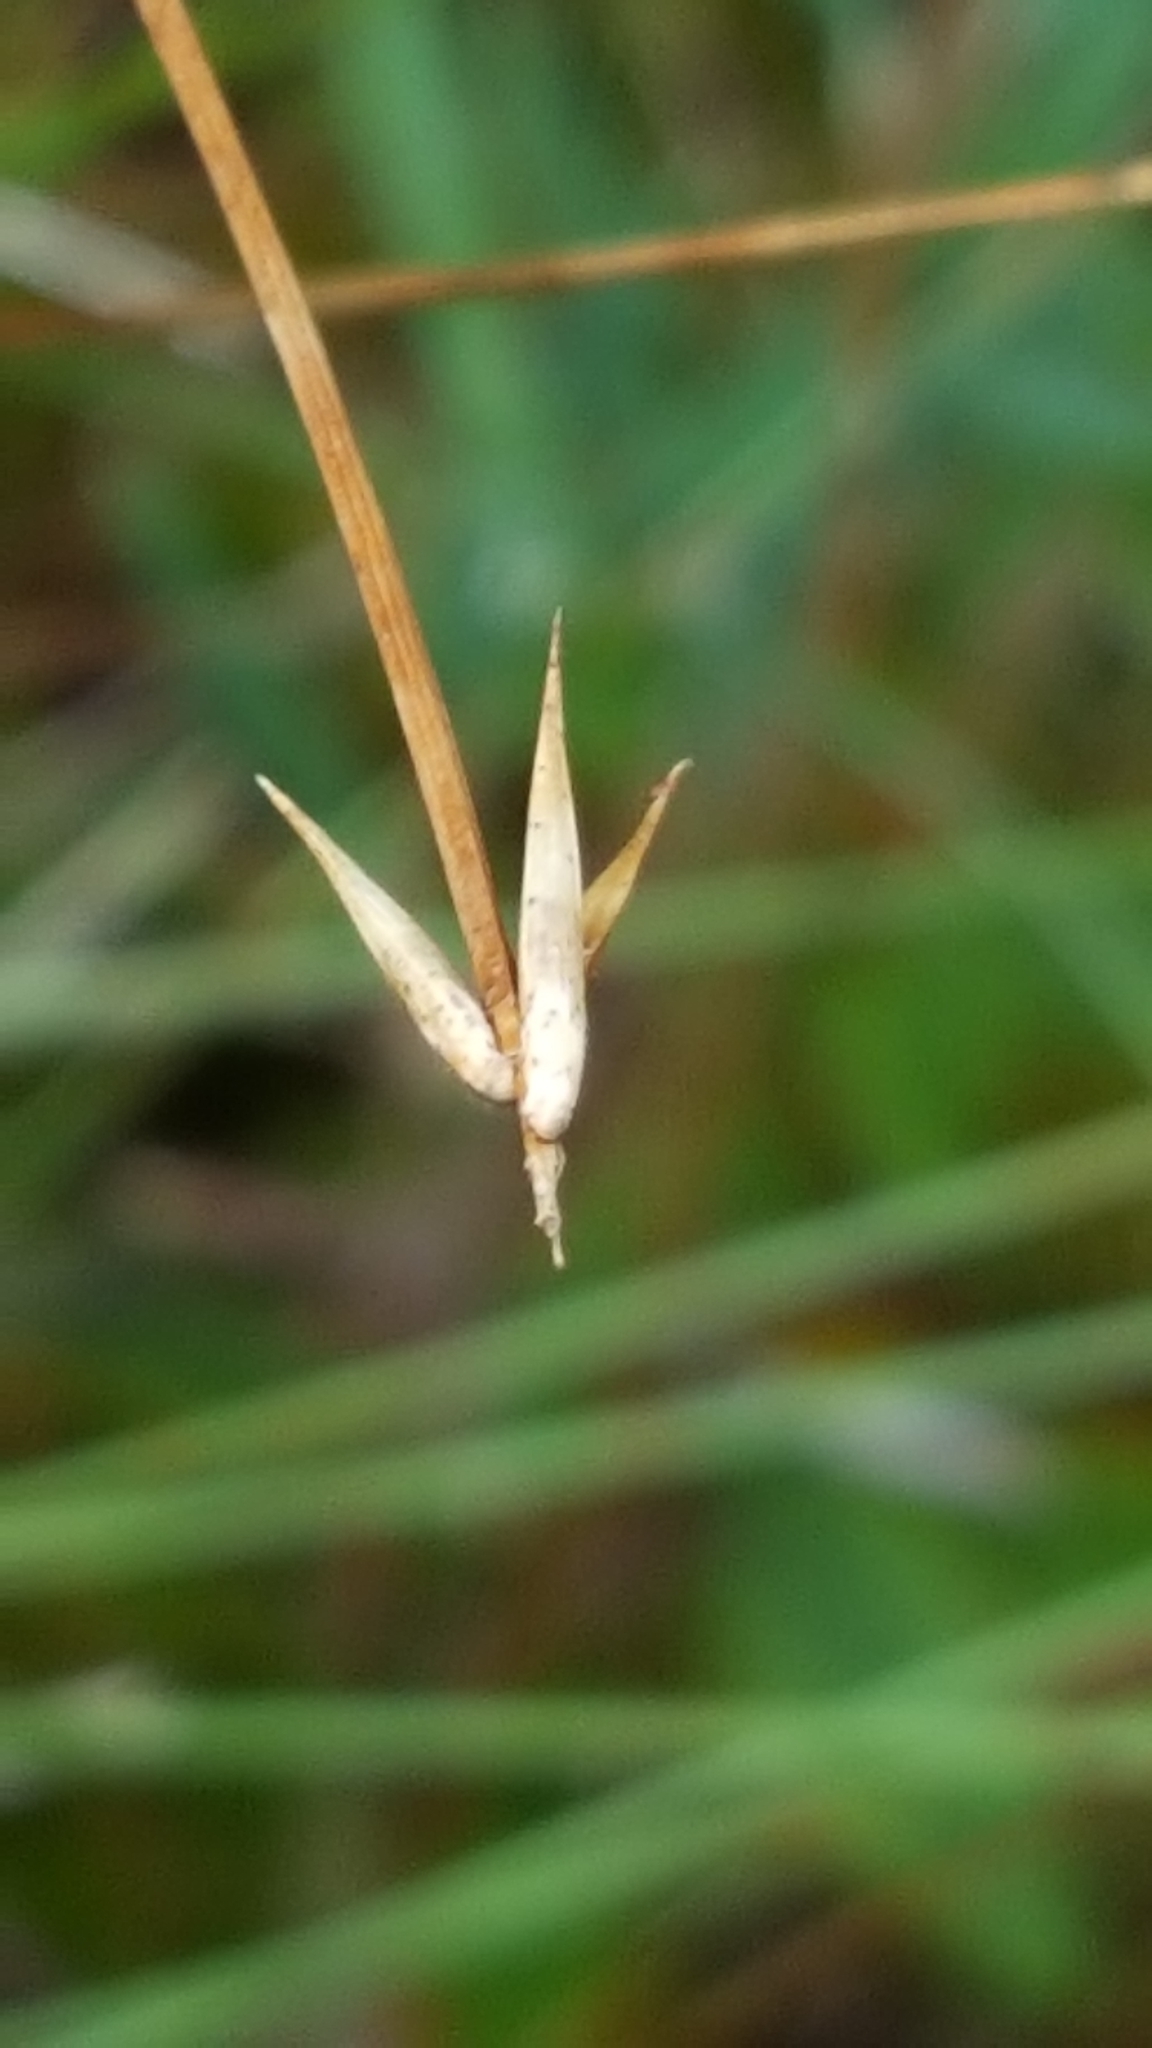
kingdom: Plantae
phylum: Tracheophyta
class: Liliopsida
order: Poales
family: Cyperaceae
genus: Carex
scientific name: Carex pauciflora
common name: Few-flowered sedge
